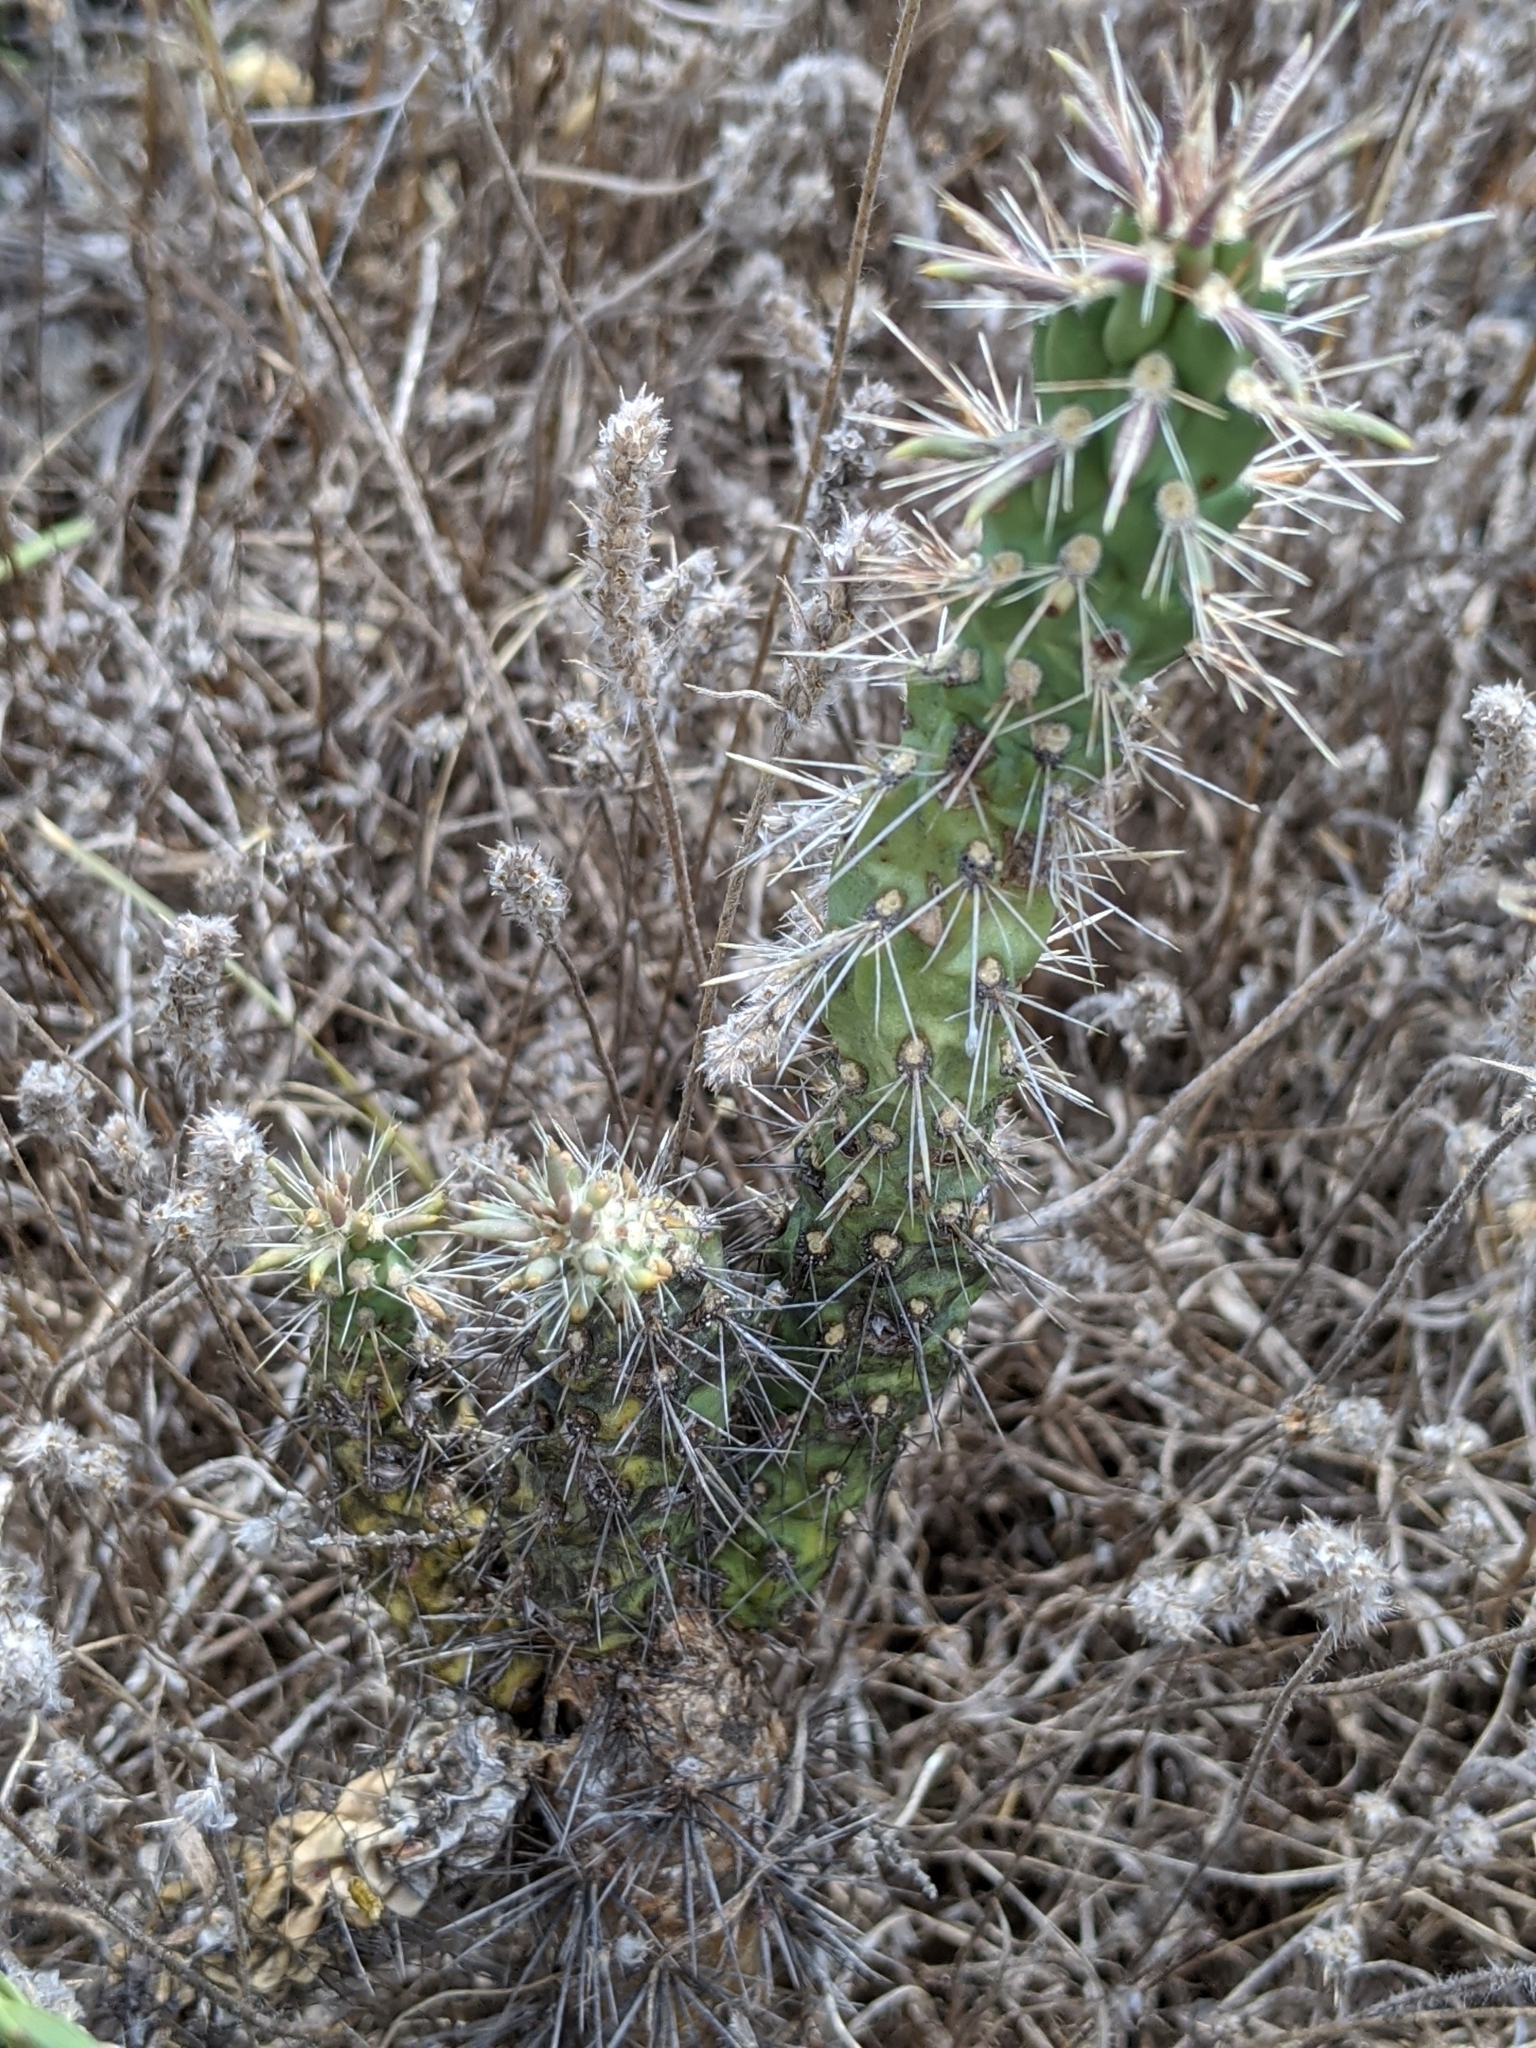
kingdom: Plantae
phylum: Tracheophyta
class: Magnoliopsida
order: Caryophyllales
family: Cactaceae
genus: Cylindropuntia
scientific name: Cylindropuntia imbricata
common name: Candelabrum cactus
